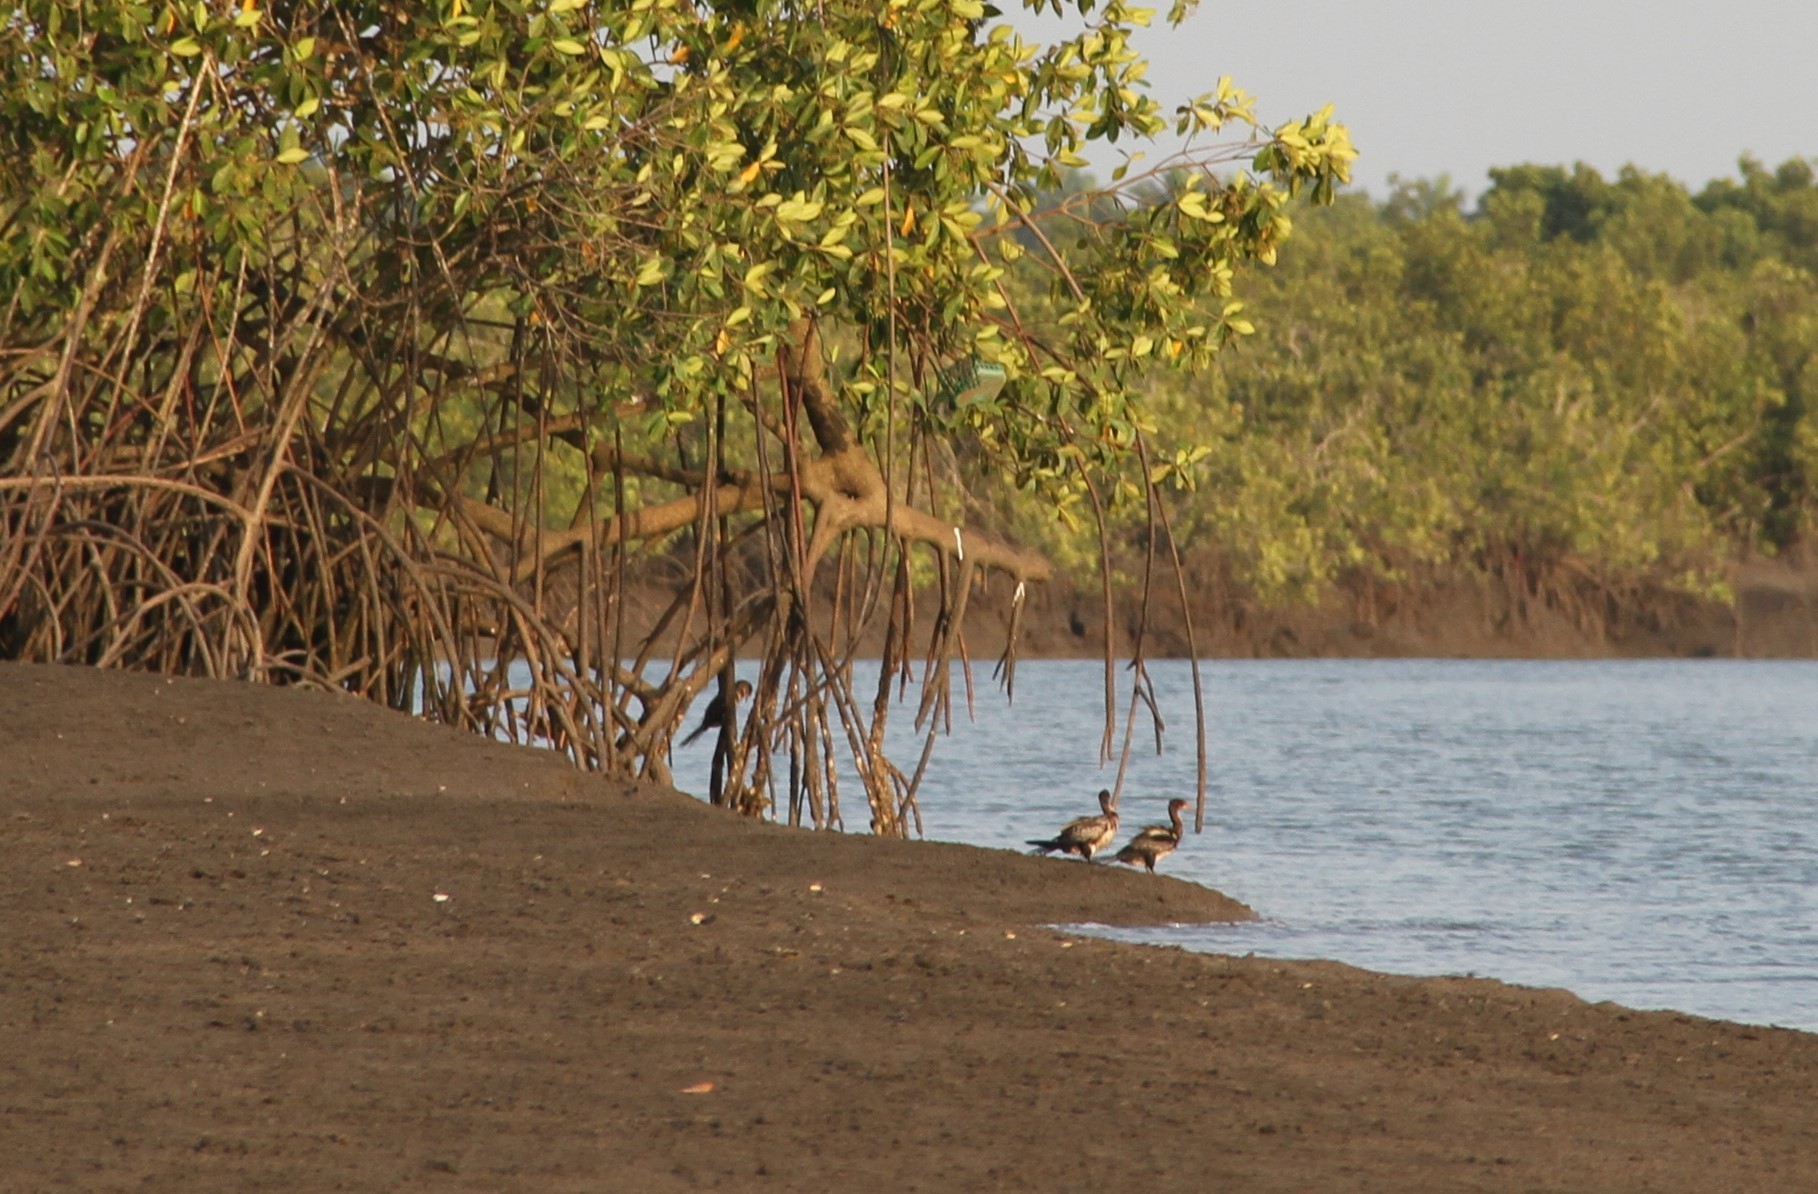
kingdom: Animalia
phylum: Chordata
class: Aves
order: Suliformes
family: Phalacrocoracidae
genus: Microcarbo
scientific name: Microcarbo africanus
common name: Long-tailed cormorant
